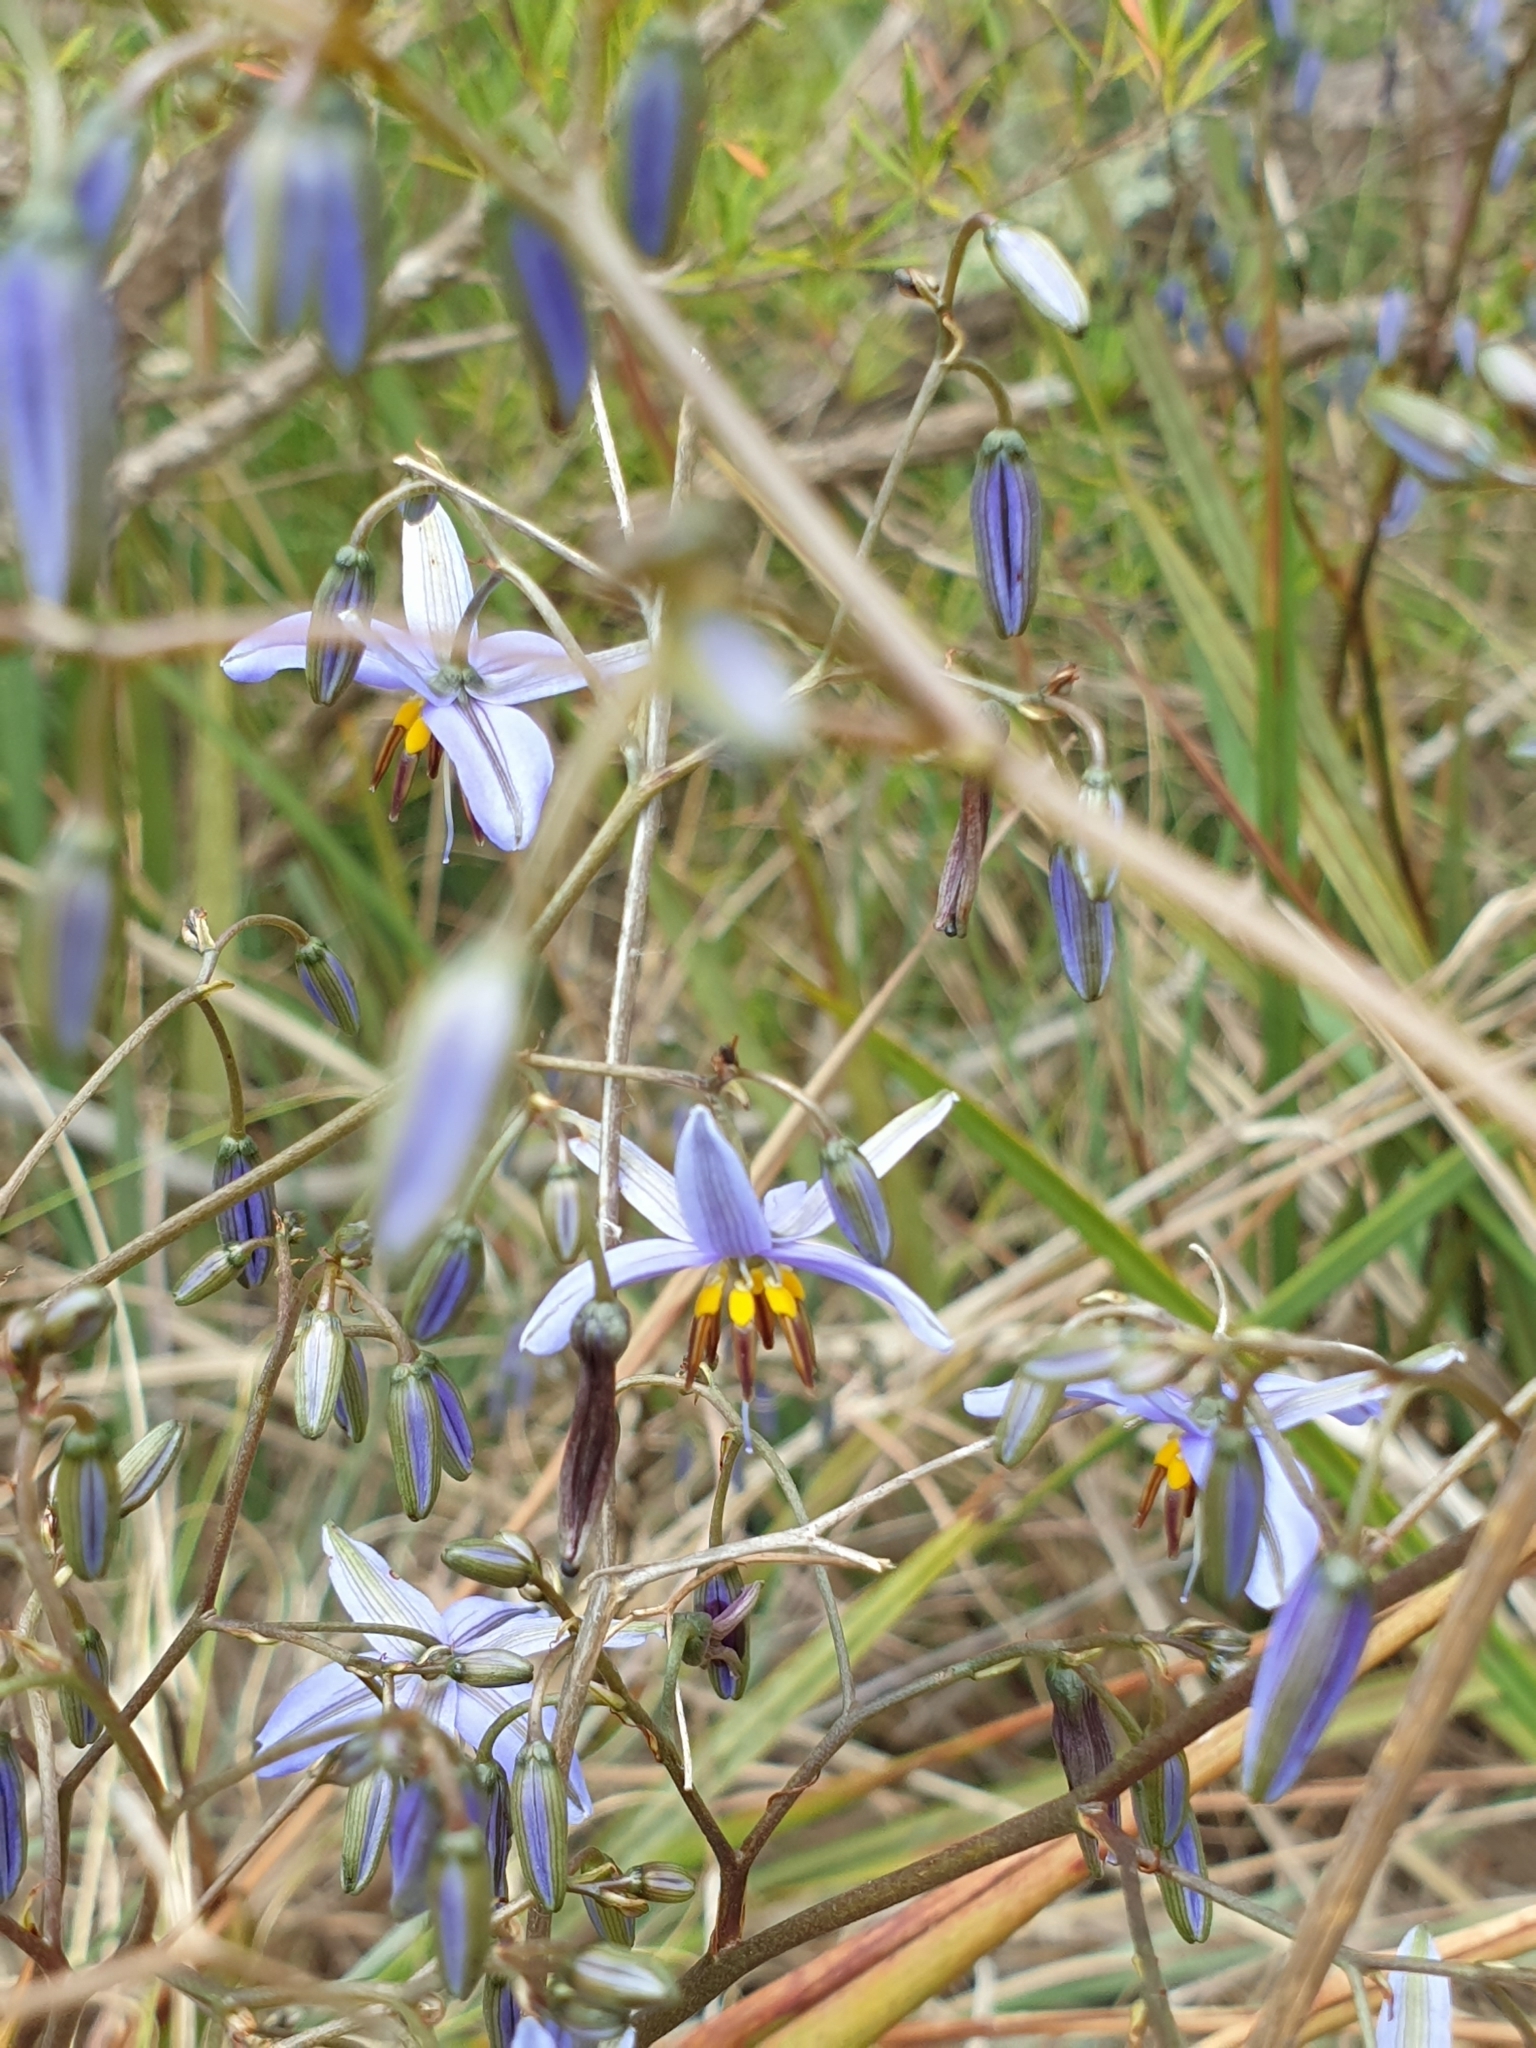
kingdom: Plantae
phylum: Tracheophyta
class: Liliopsida
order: Asparagales
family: Asphodelaceae
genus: Dianella
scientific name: Dianella revoluta
